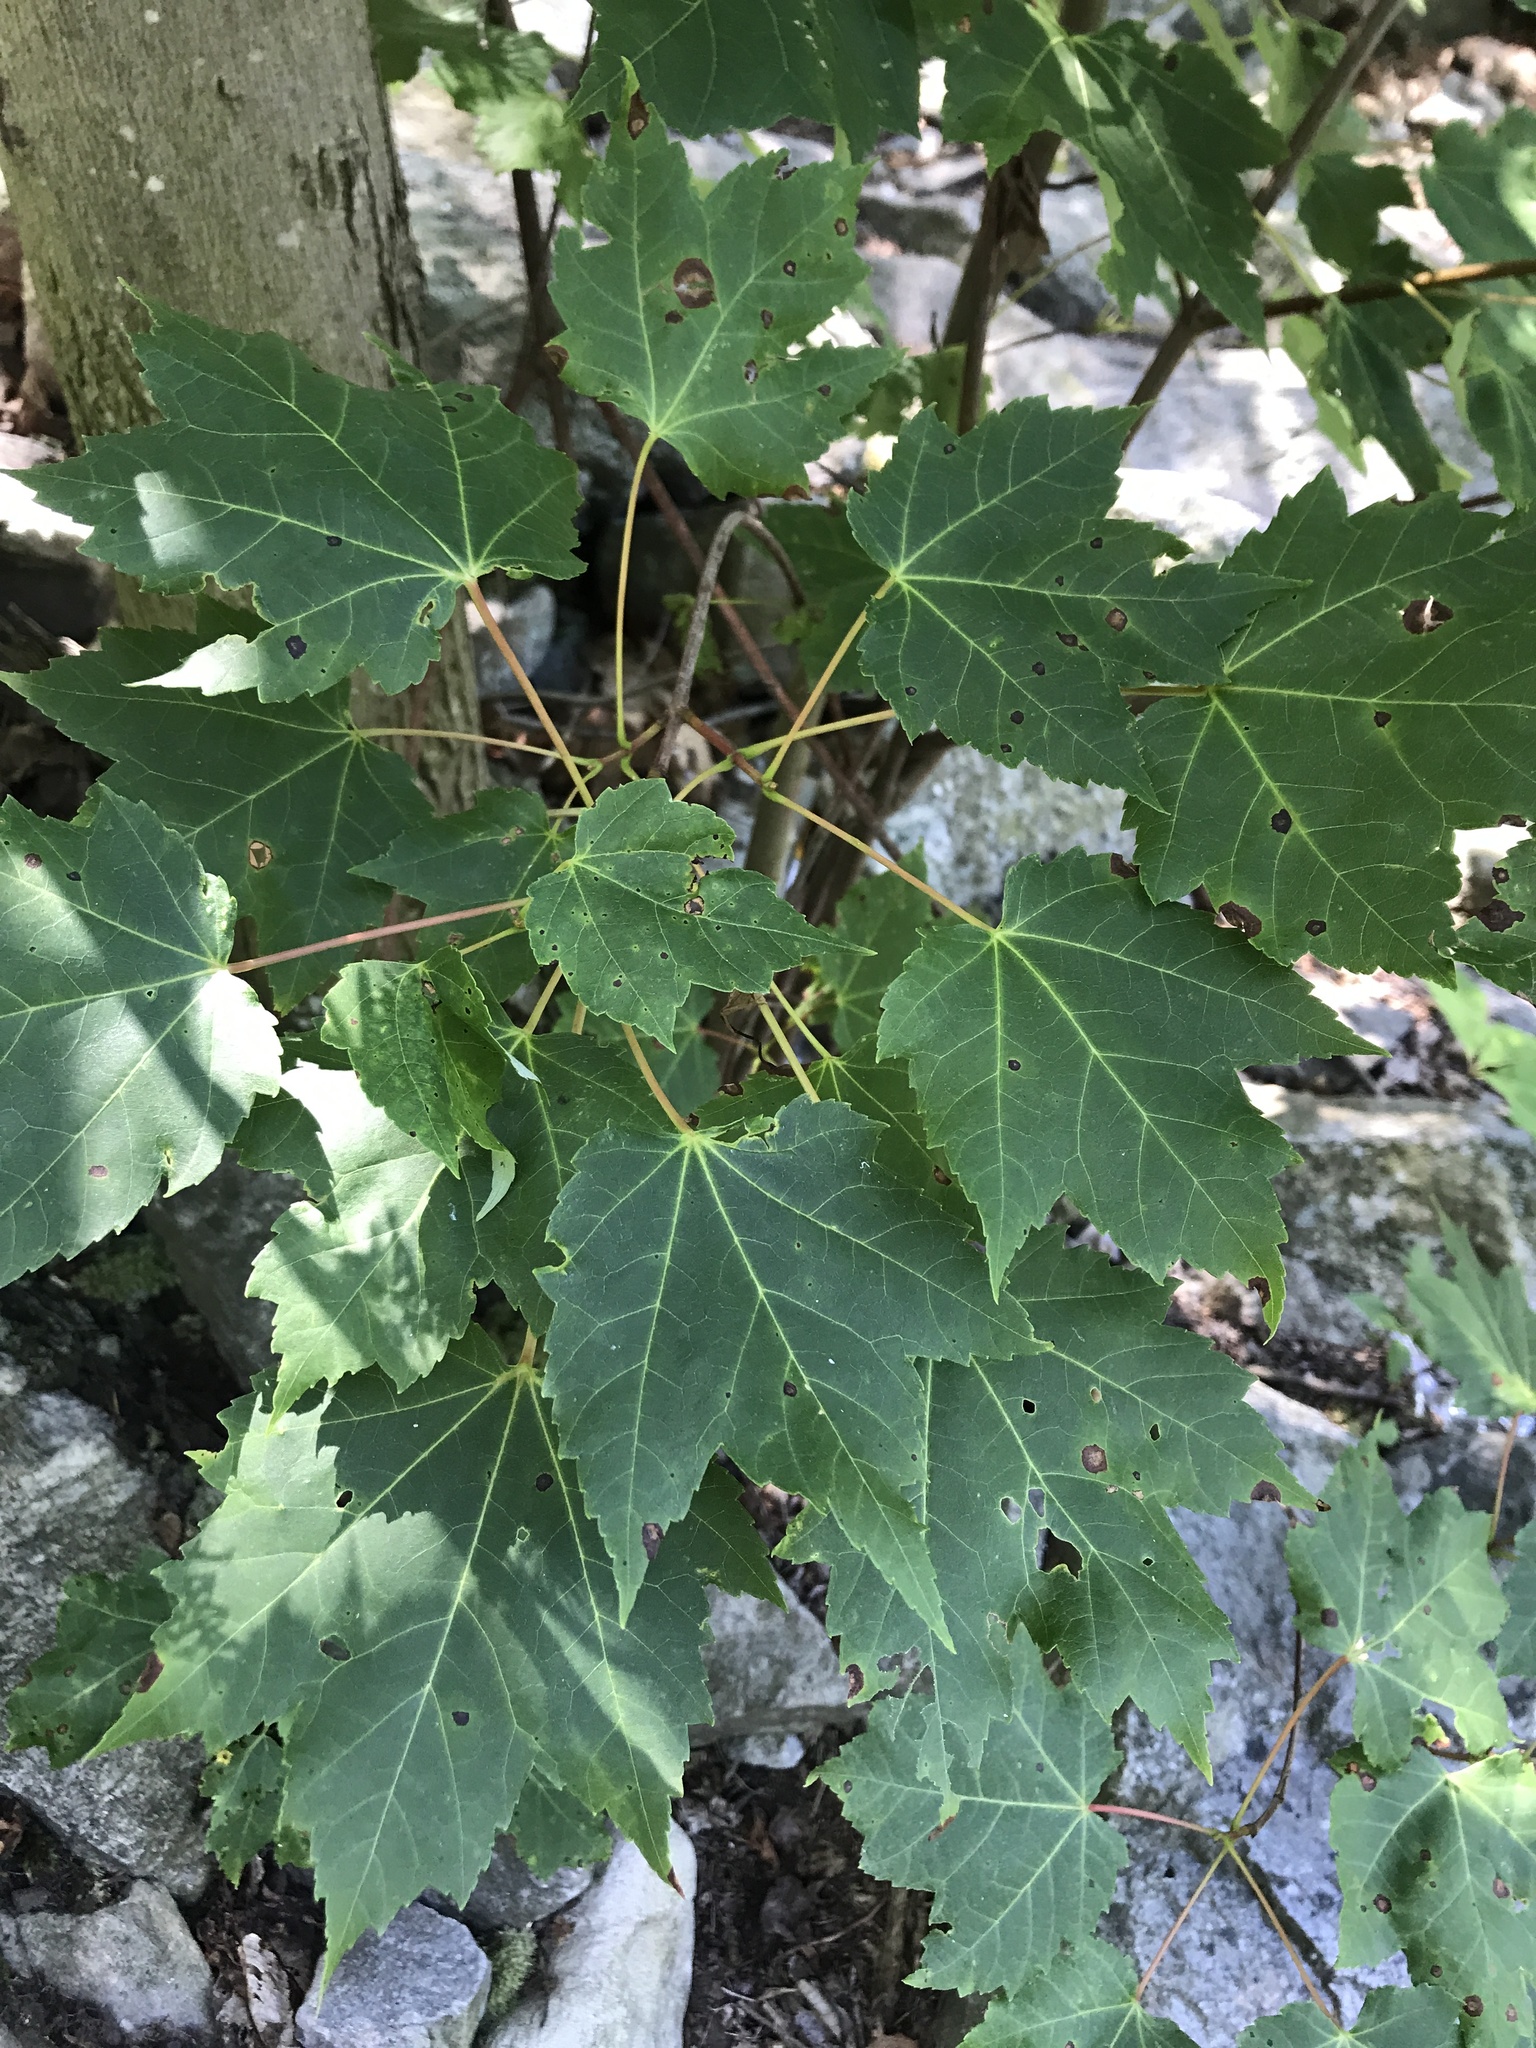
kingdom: Plantae
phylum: Tracheophyta
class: Magnoliopsida
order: Sapindales
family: Sapindaceae
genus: Acer
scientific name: Acer rubrum
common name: Red maple
